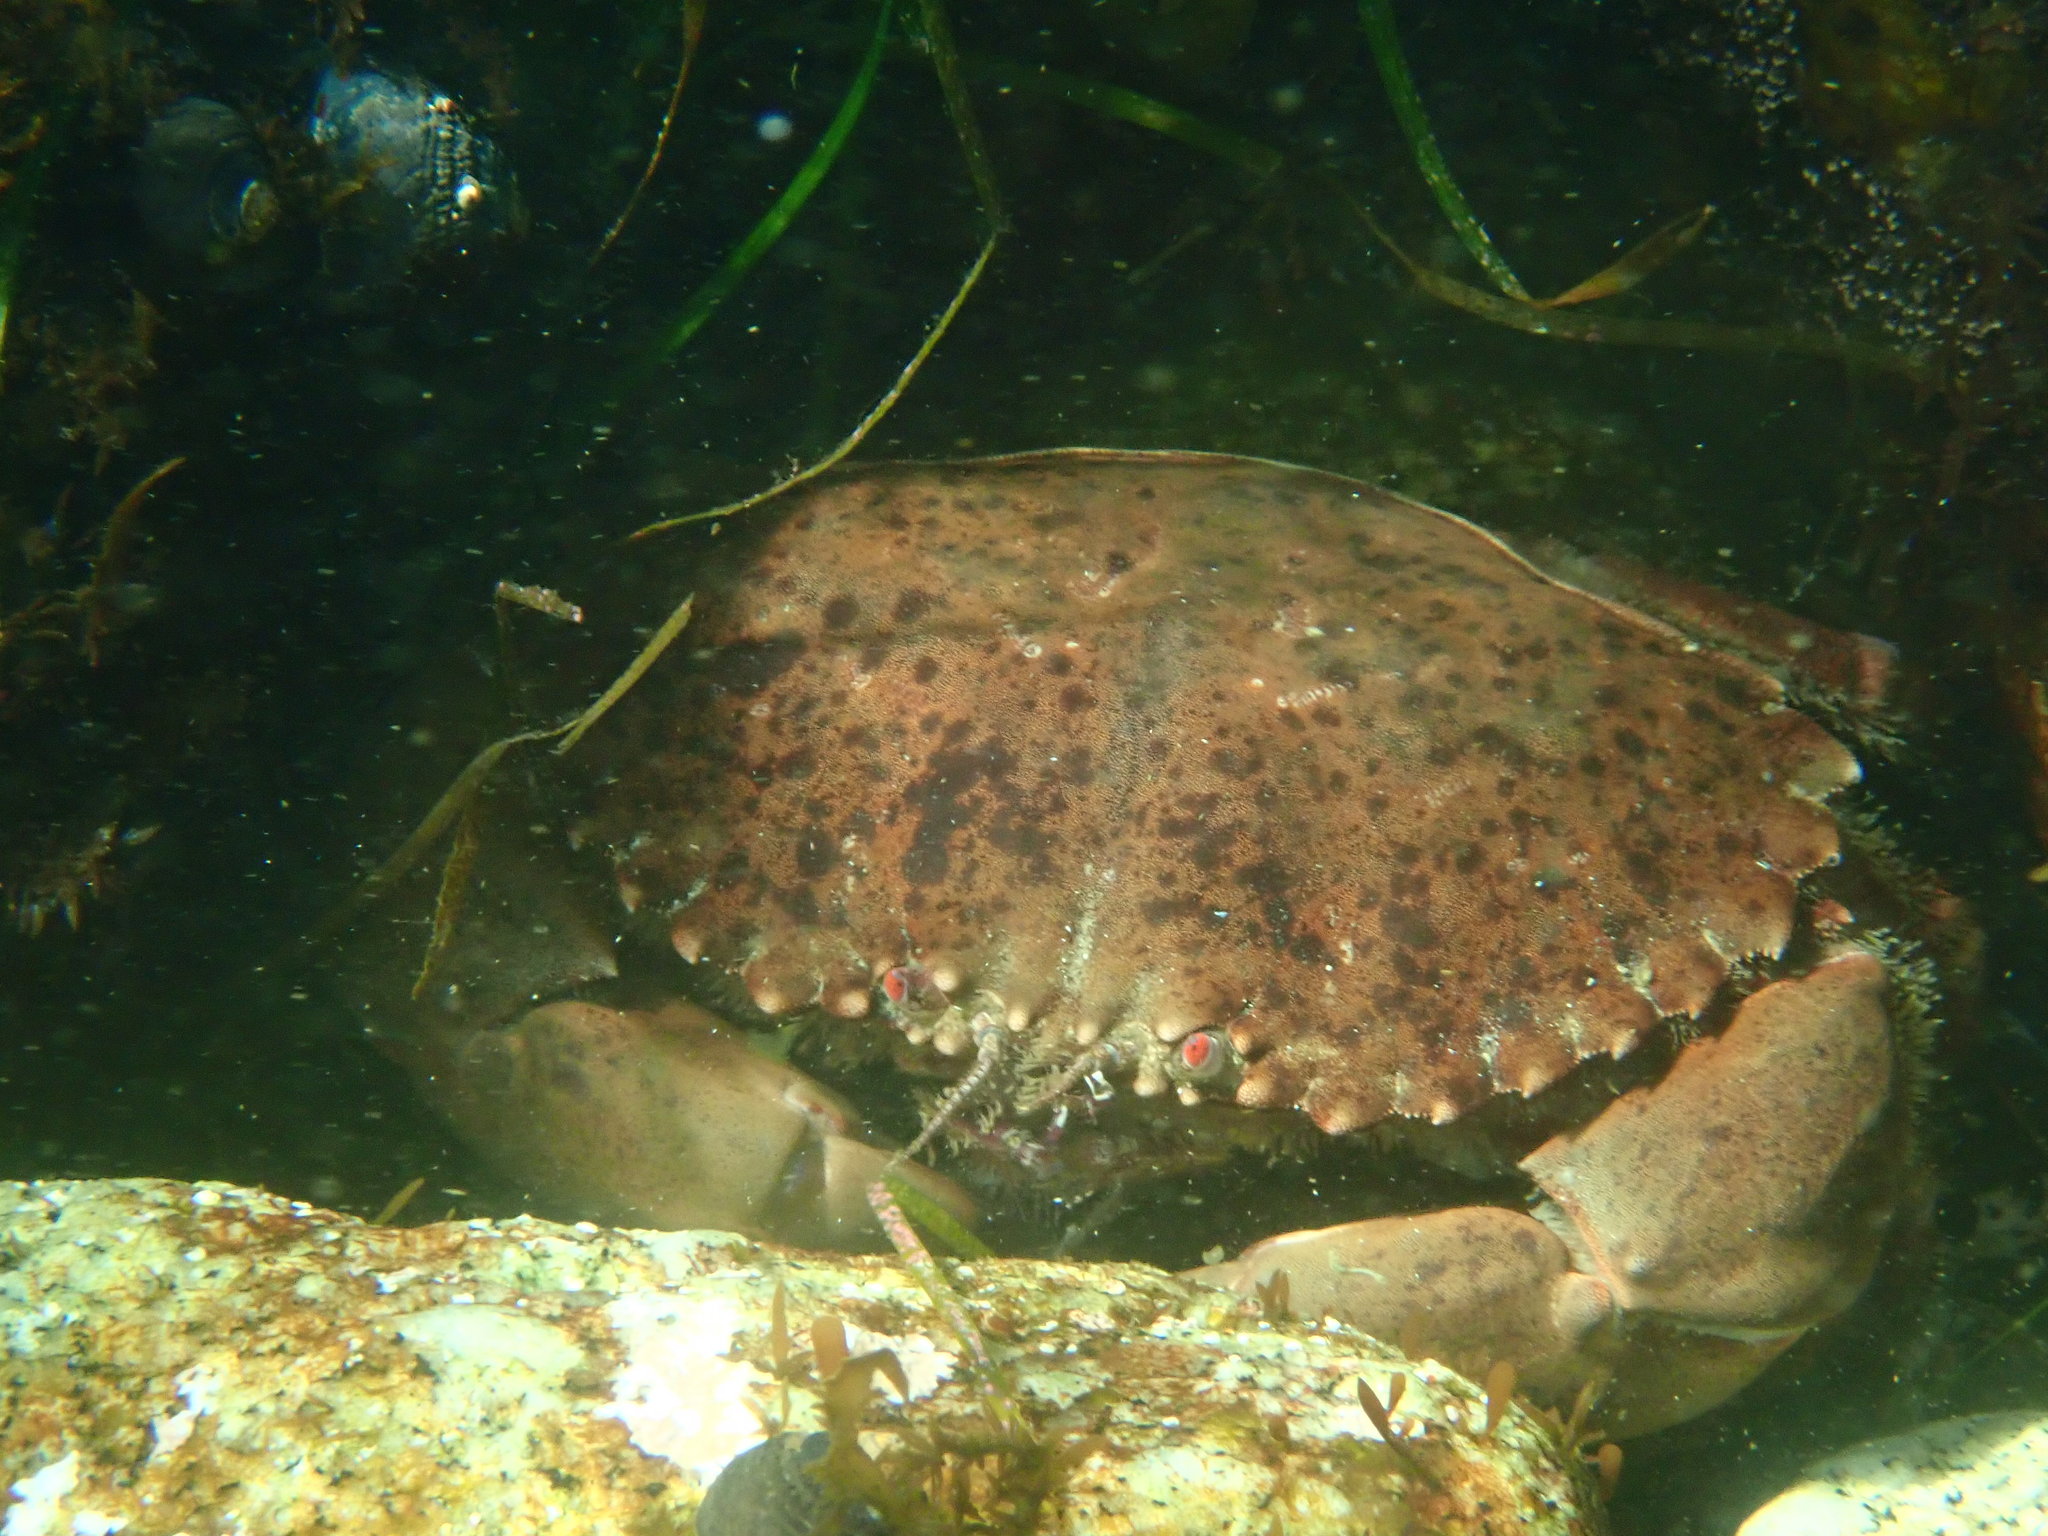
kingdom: Animalia
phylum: Arthropoda
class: Malacostraca
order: Decapoda
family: Cancridae
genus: Romaleon
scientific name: Romaleon antennarium
